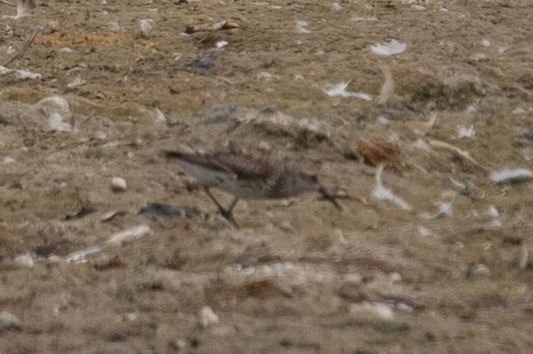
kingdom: Animalia
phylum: Chordata
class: Aves
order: Charadriiformes
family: Scolopacidae
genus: Calidris
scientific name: Calidris mauri
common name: Western sandpiper
